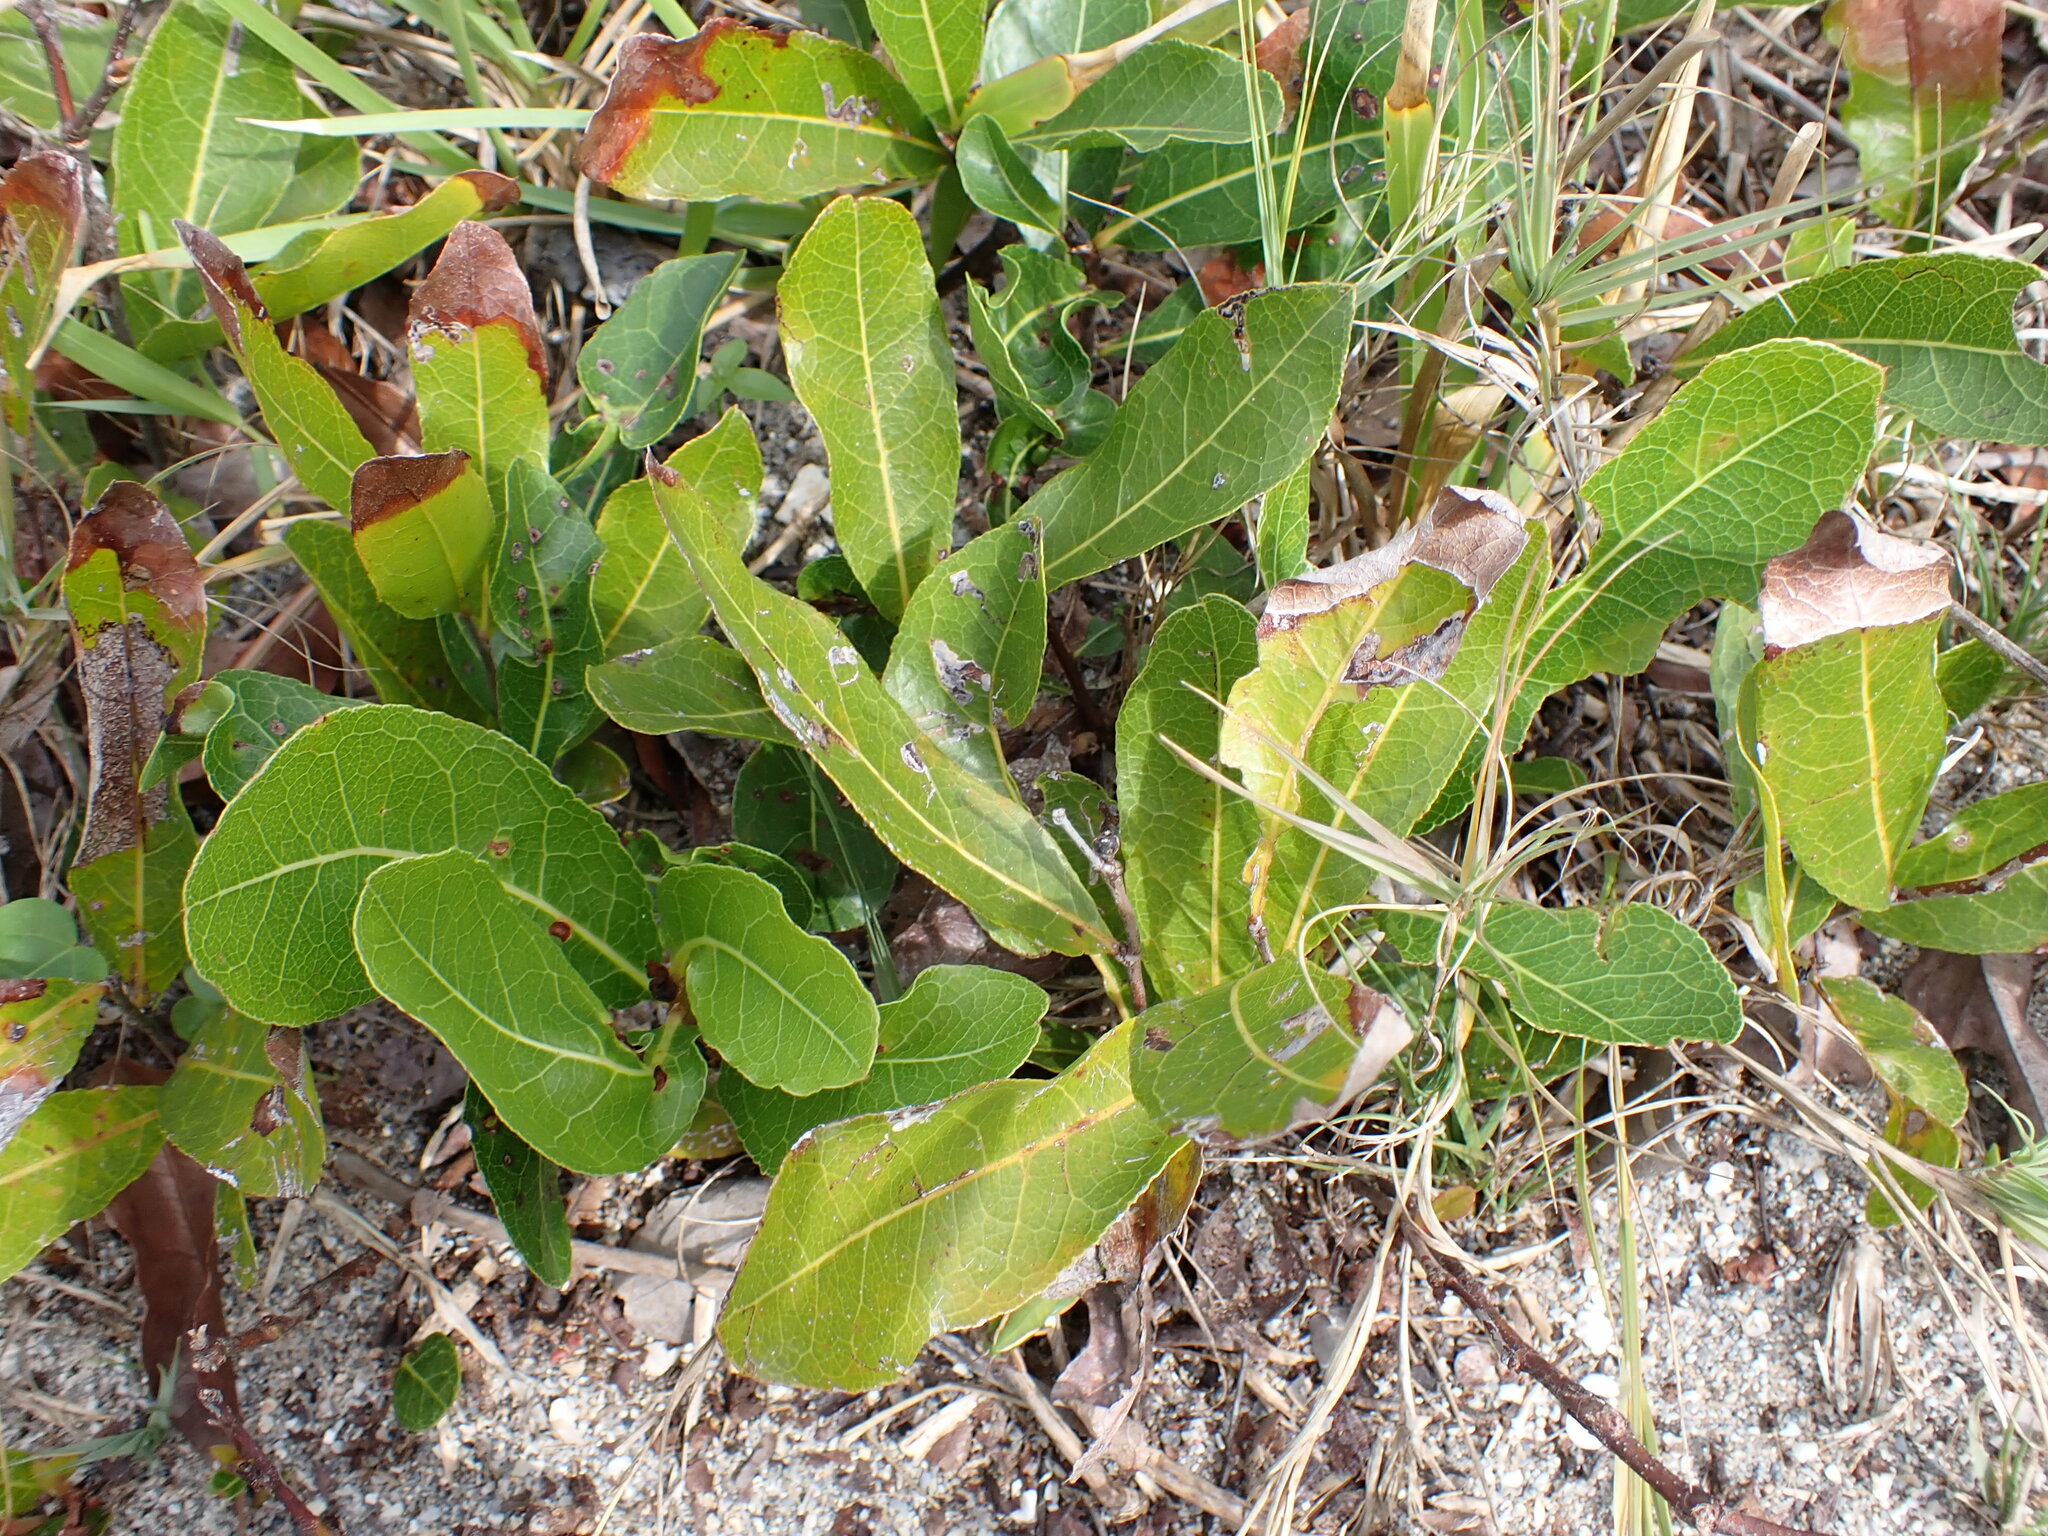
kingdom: Plantae
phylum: Tracheophyta
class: Magnoliopsida
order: Malpighiales
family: Chrysobalanaceae
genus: Geobalanus
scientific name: Geobalanus oblongifolius
